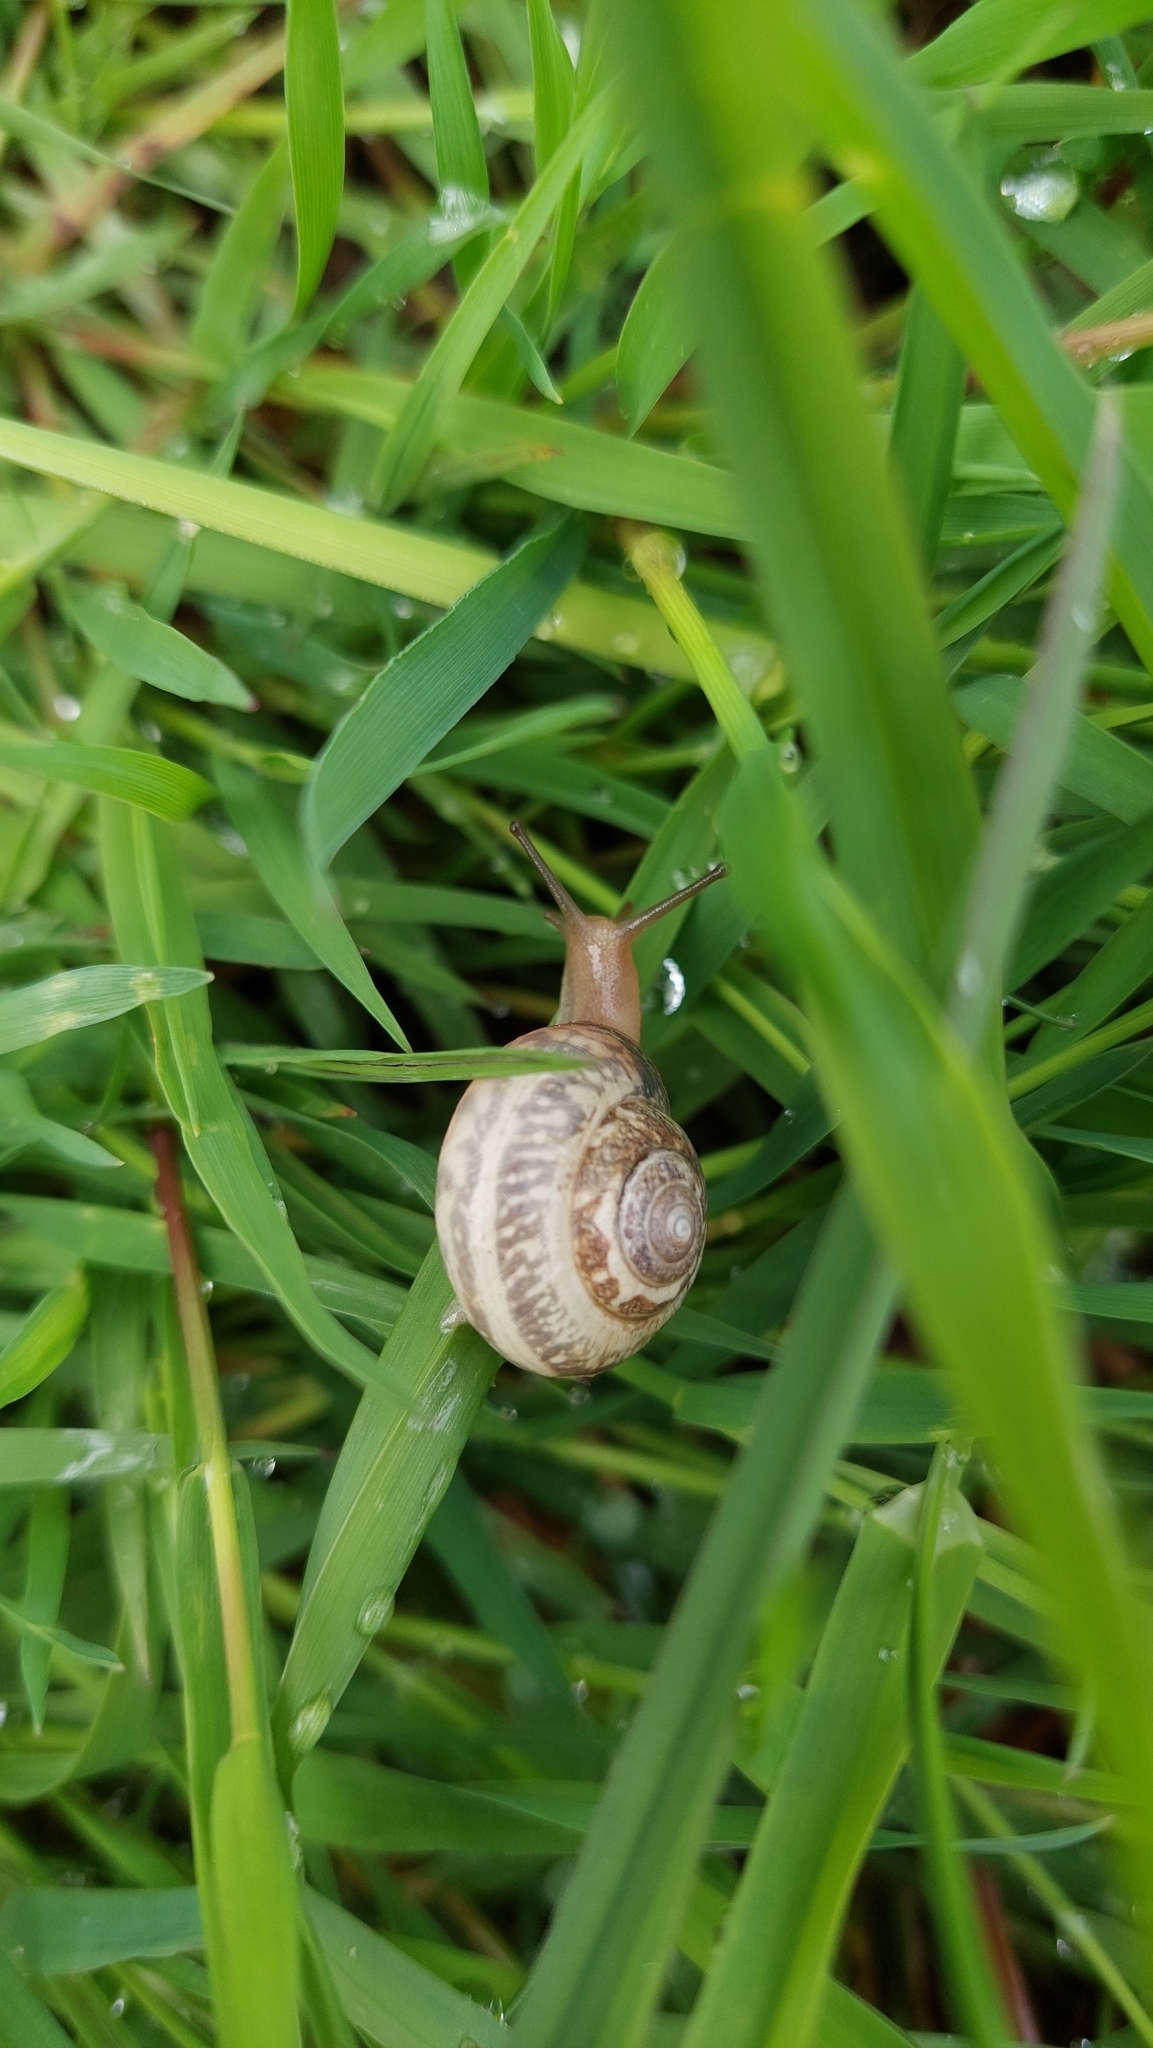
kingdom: Animalia
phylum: Mollusca
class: Gastropoda
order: Stylommatophora
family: Hygromiidae
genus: Monacha
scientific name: Monacha cantiana
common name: Kentish snail
